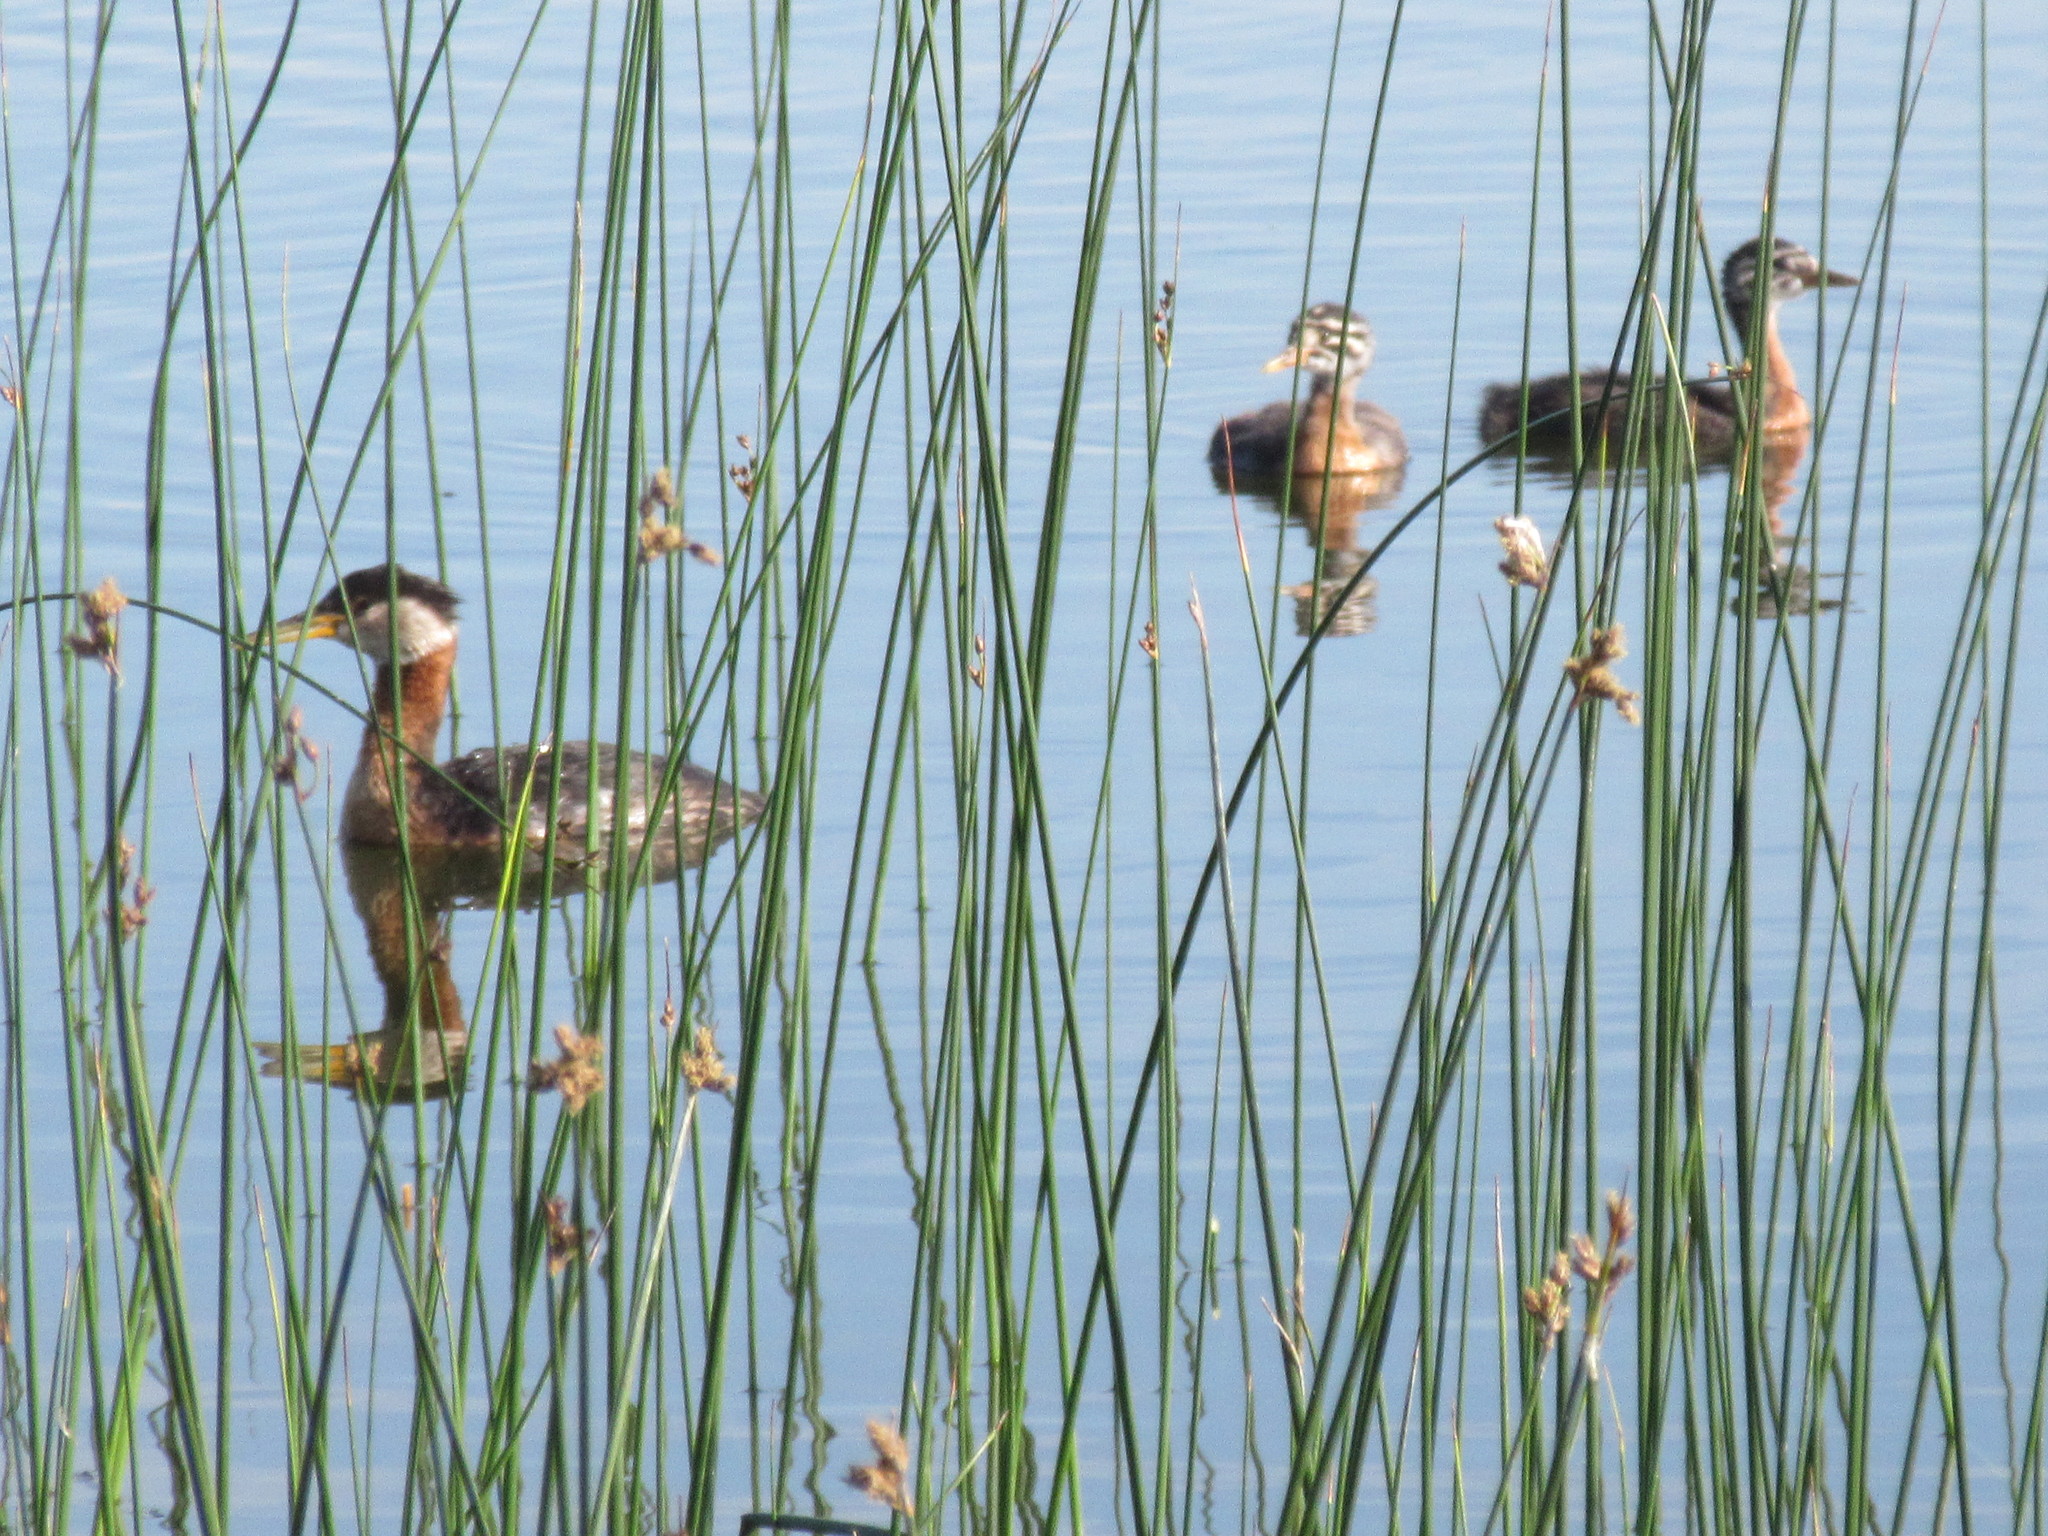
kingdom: Animalia
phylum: Chordata
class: Aves
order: Podicipediformes
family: Podicipedidae
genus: Podiceps
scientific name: Podiceps grisegena
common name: Red-necked grebe
